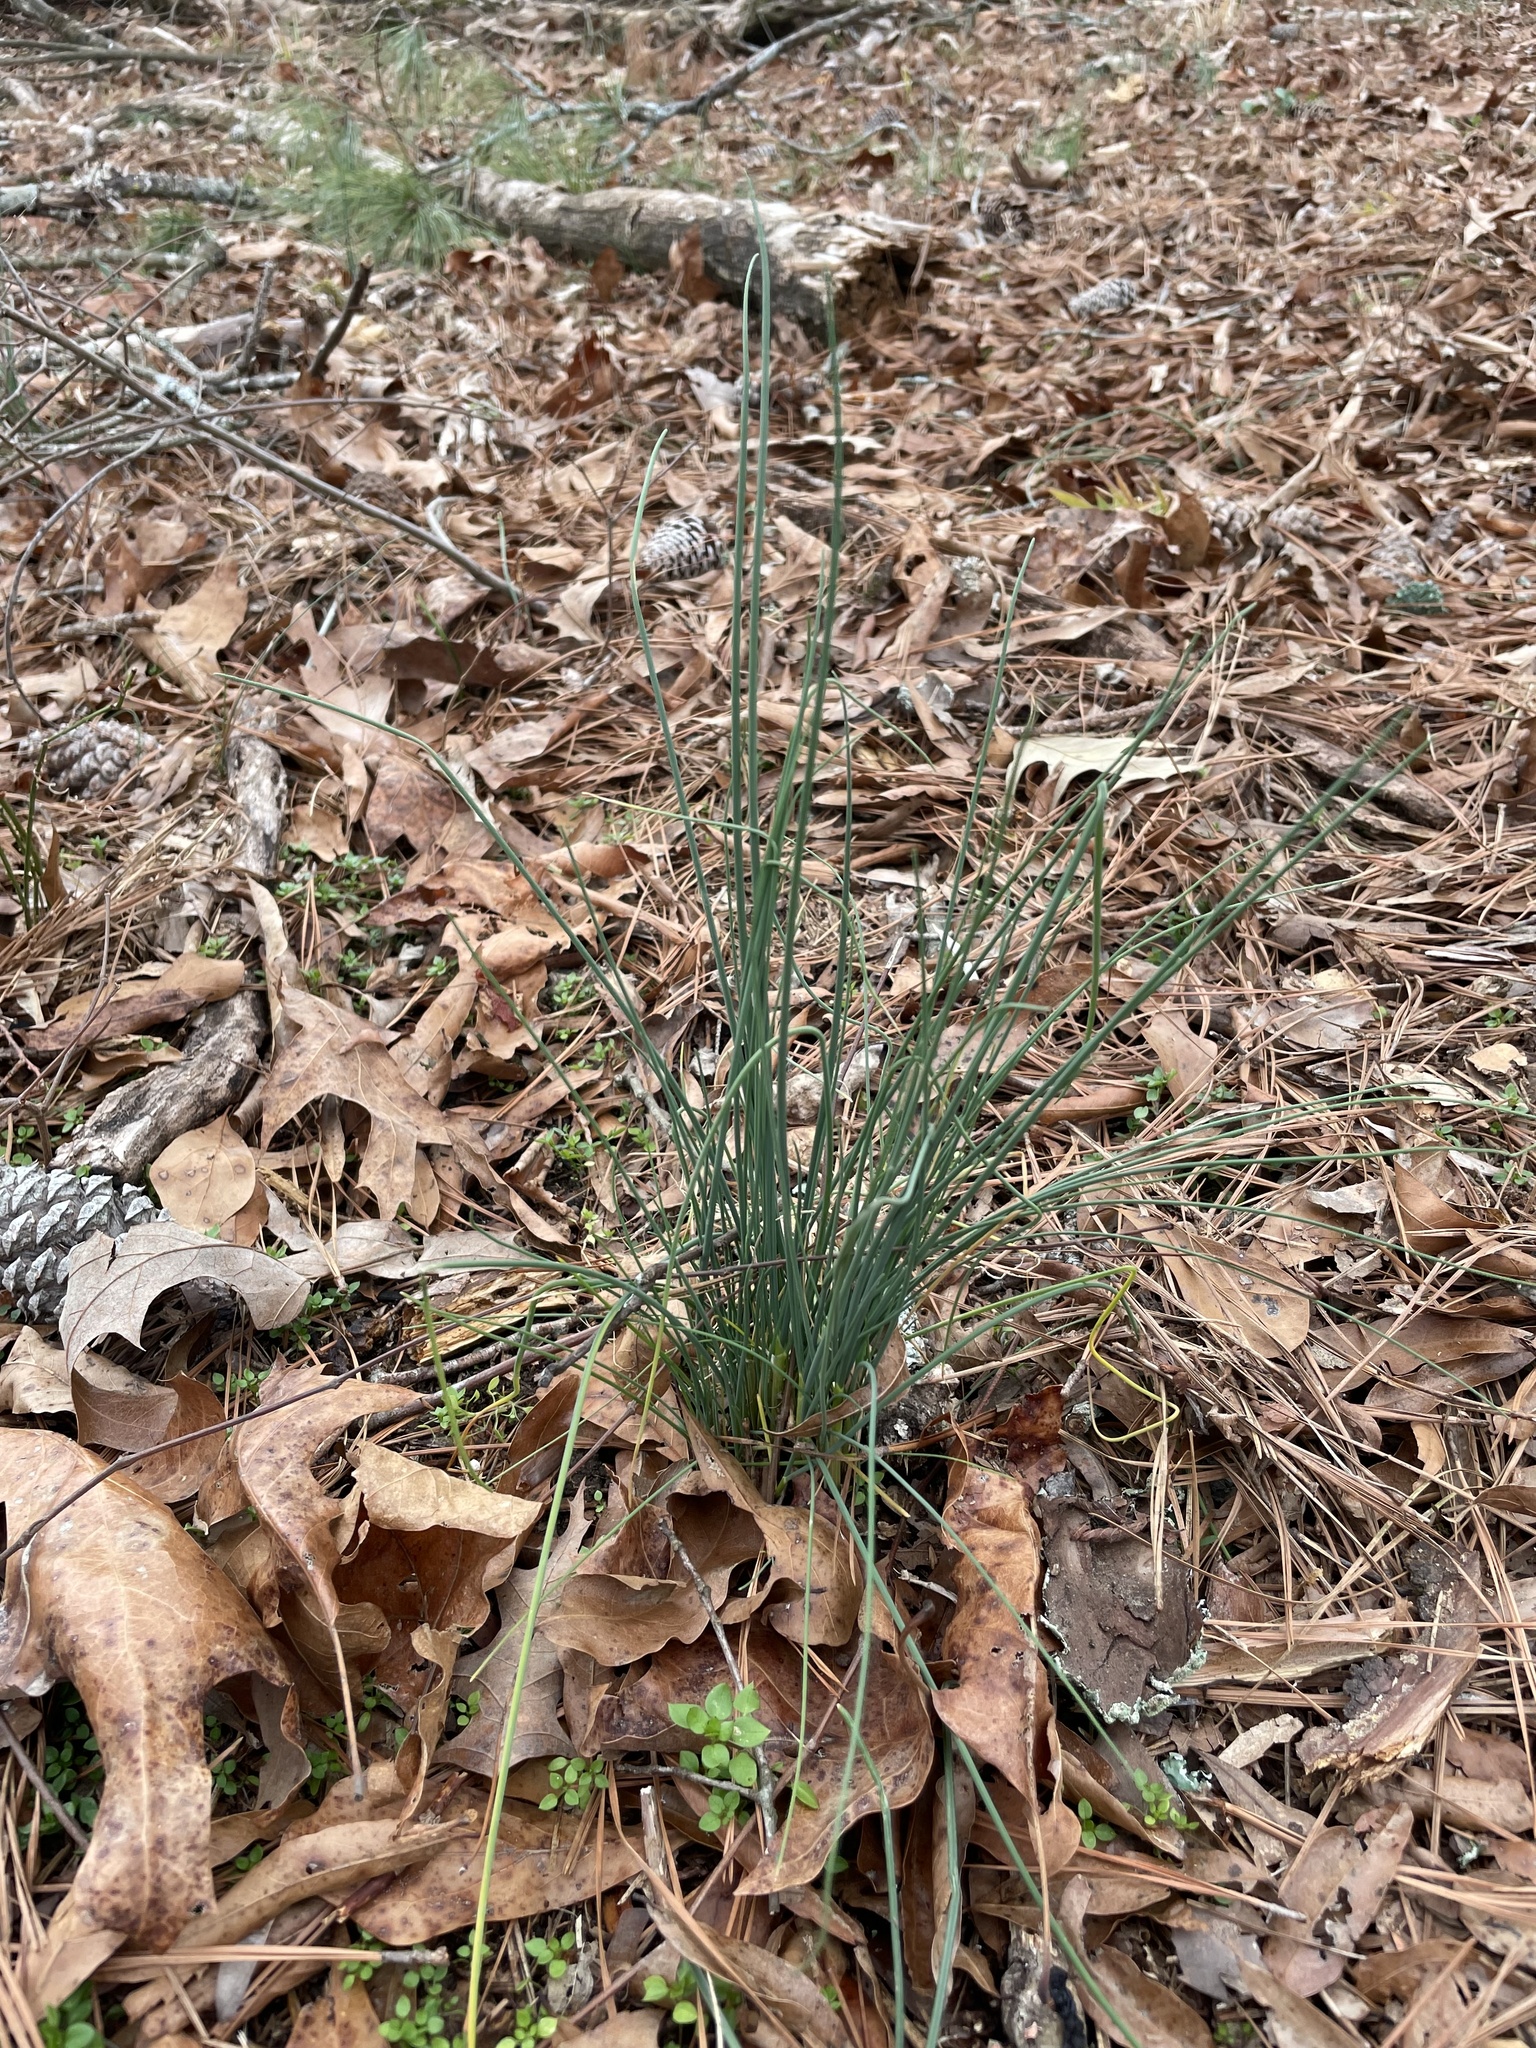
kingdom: Plantae
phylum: Tracheophyta
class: Liliopsida
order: Asparagales
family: Amaryllidaceae
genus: Allium
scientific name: Allium vineale
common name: Crow garlic
